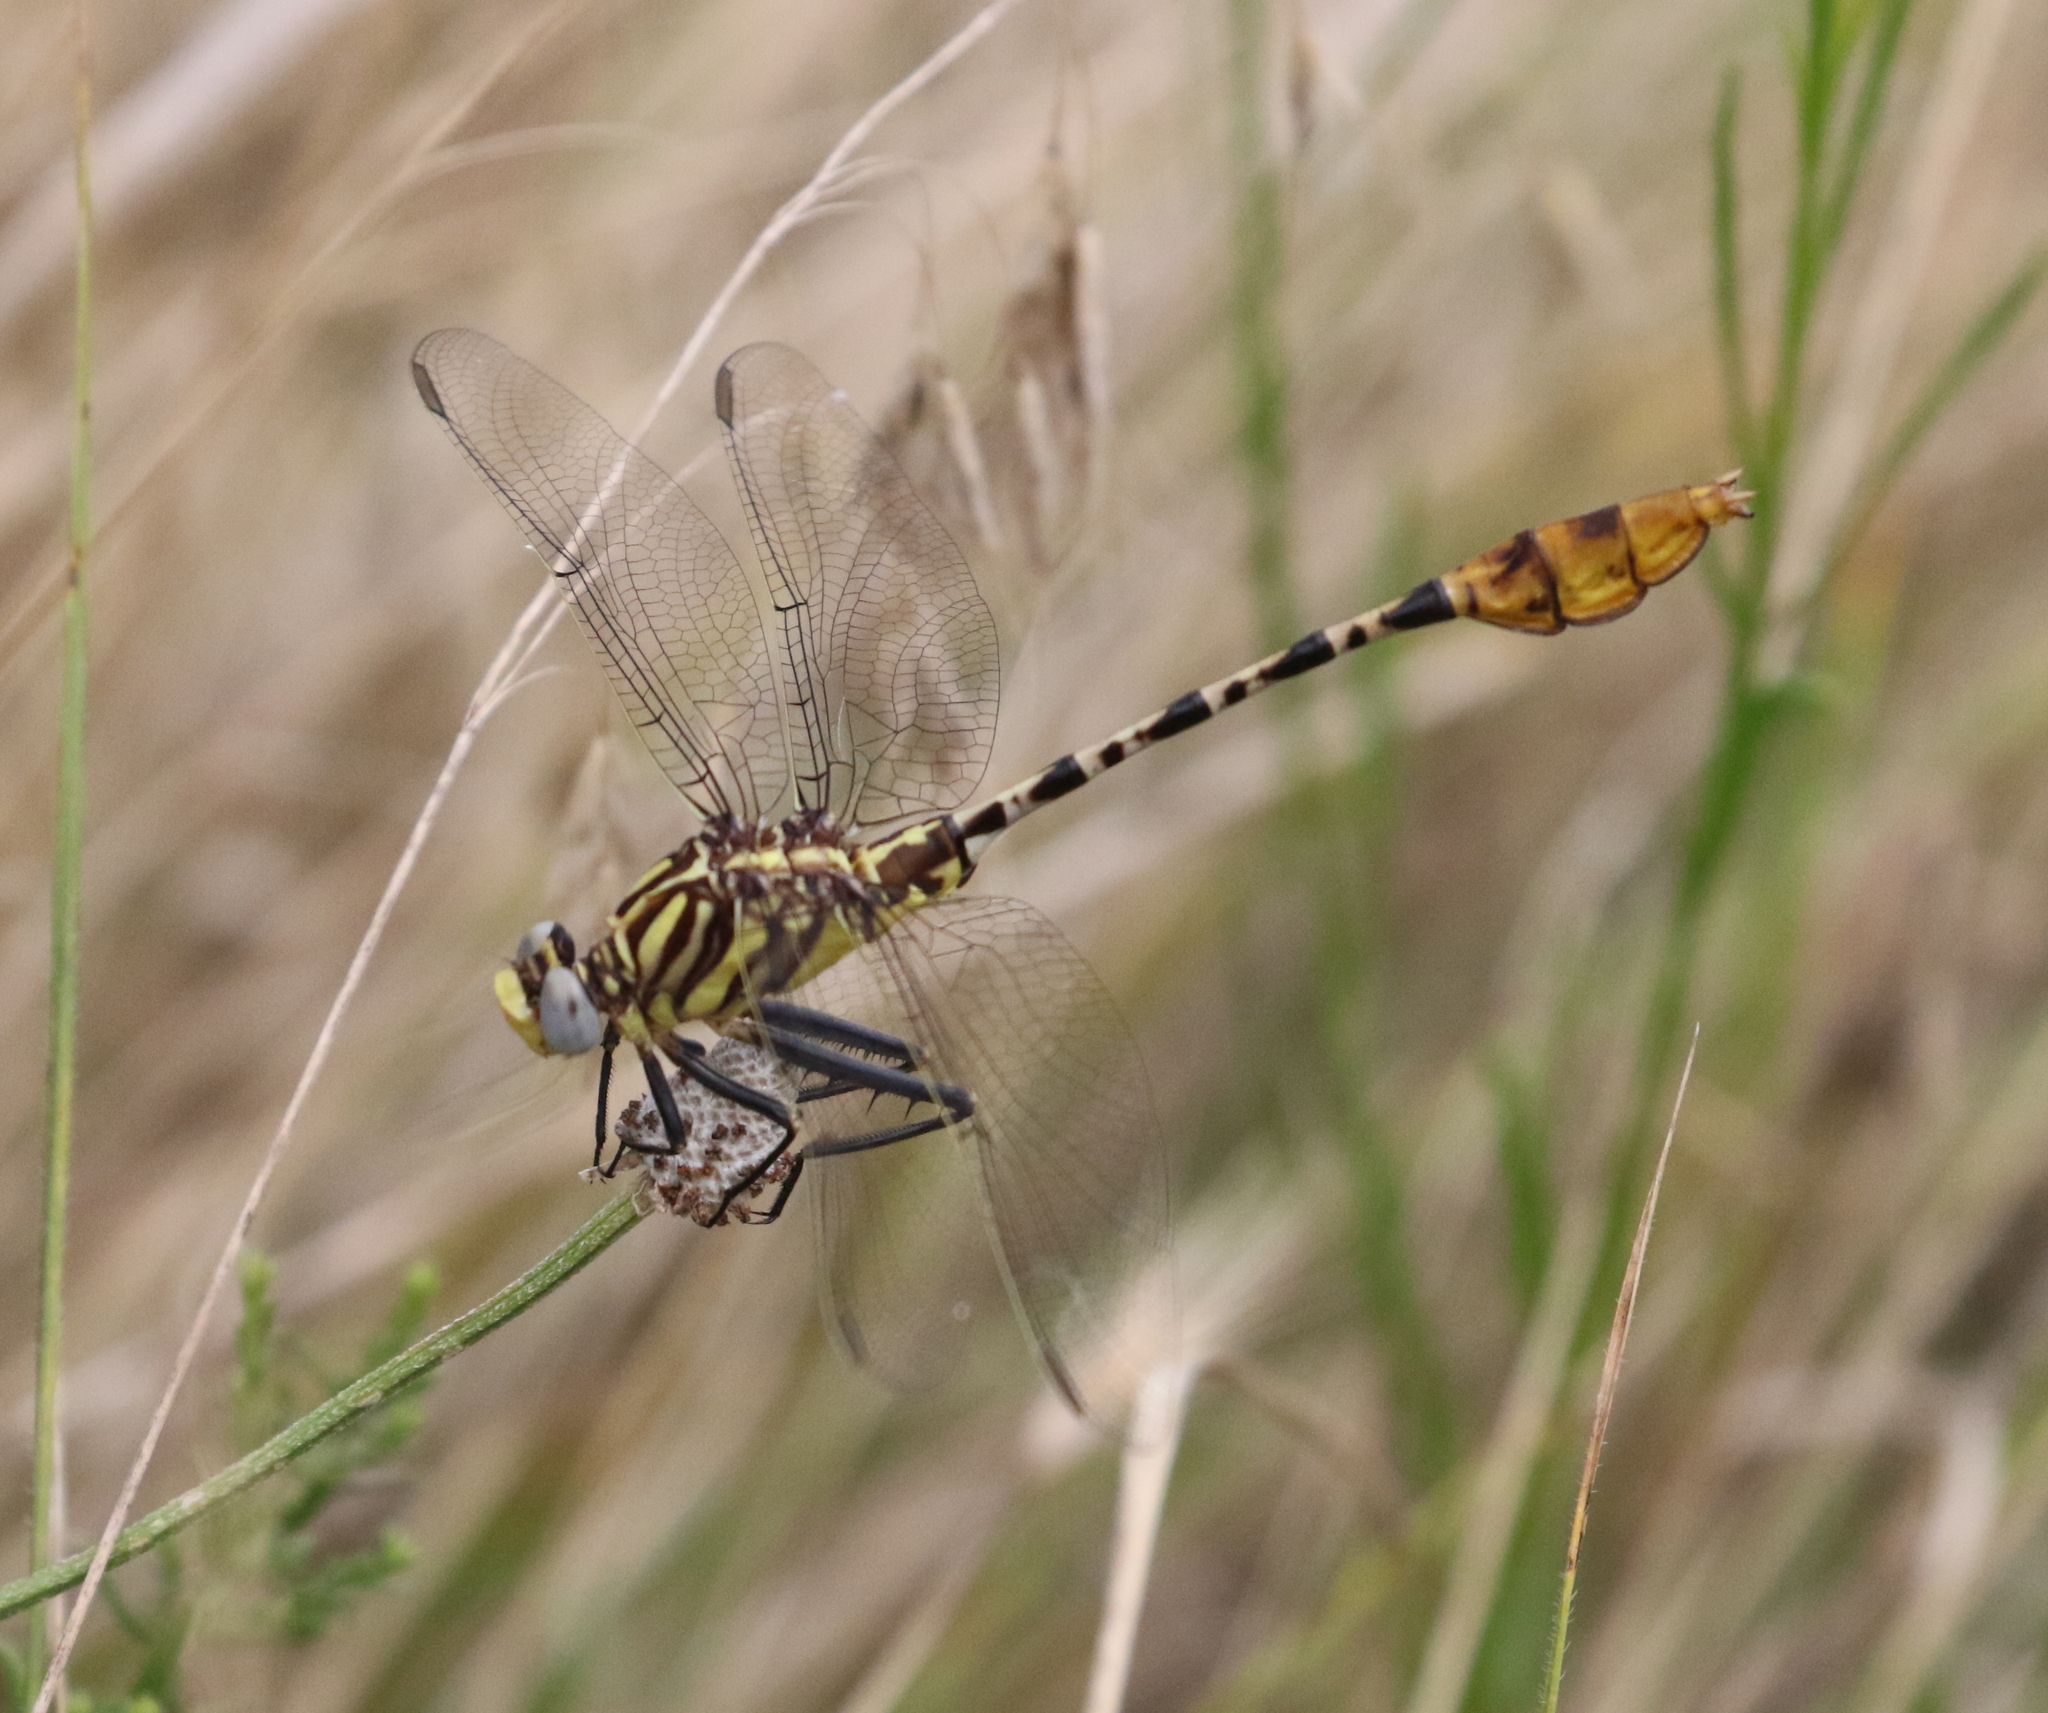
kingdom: Animalia
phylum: Arthropoda
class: Insecta
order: Odonata
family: Gomphidae
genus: Dromogomphus
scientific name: Dromogomphus spoliatus
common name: Flag-tailed spinyleg
